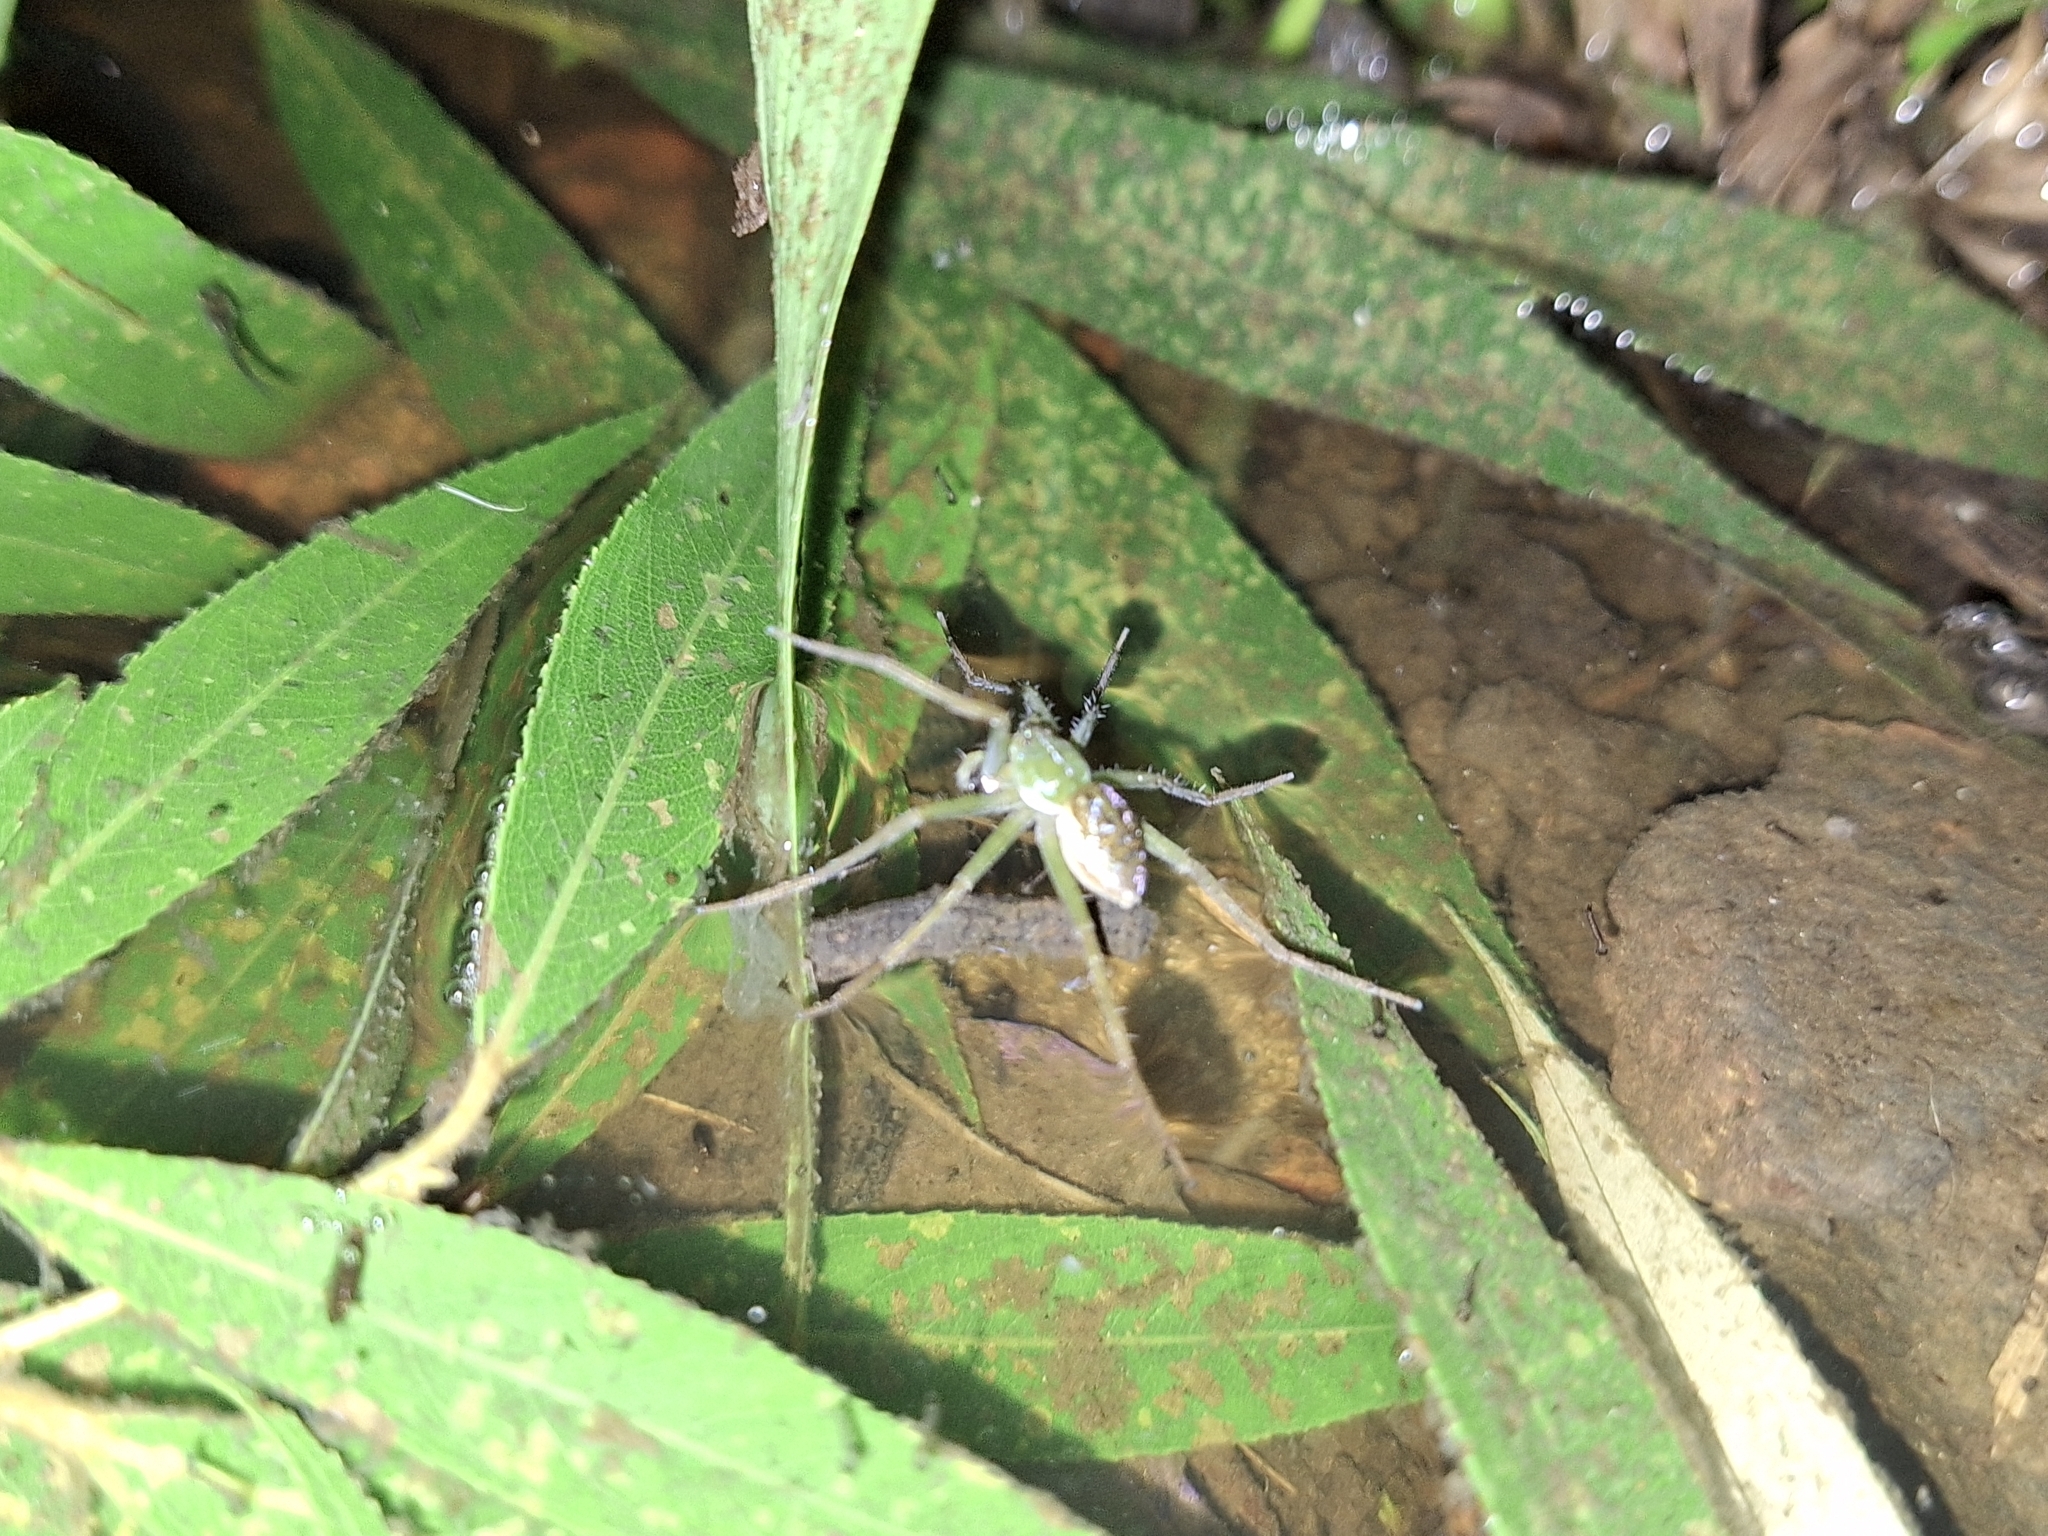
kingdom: Animalia
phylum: Arthropoda
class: Arachnida
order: Araneae
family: Pisauridae
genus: Thaumasia
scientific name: Thaumasia velox
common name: Nursery web spiders
